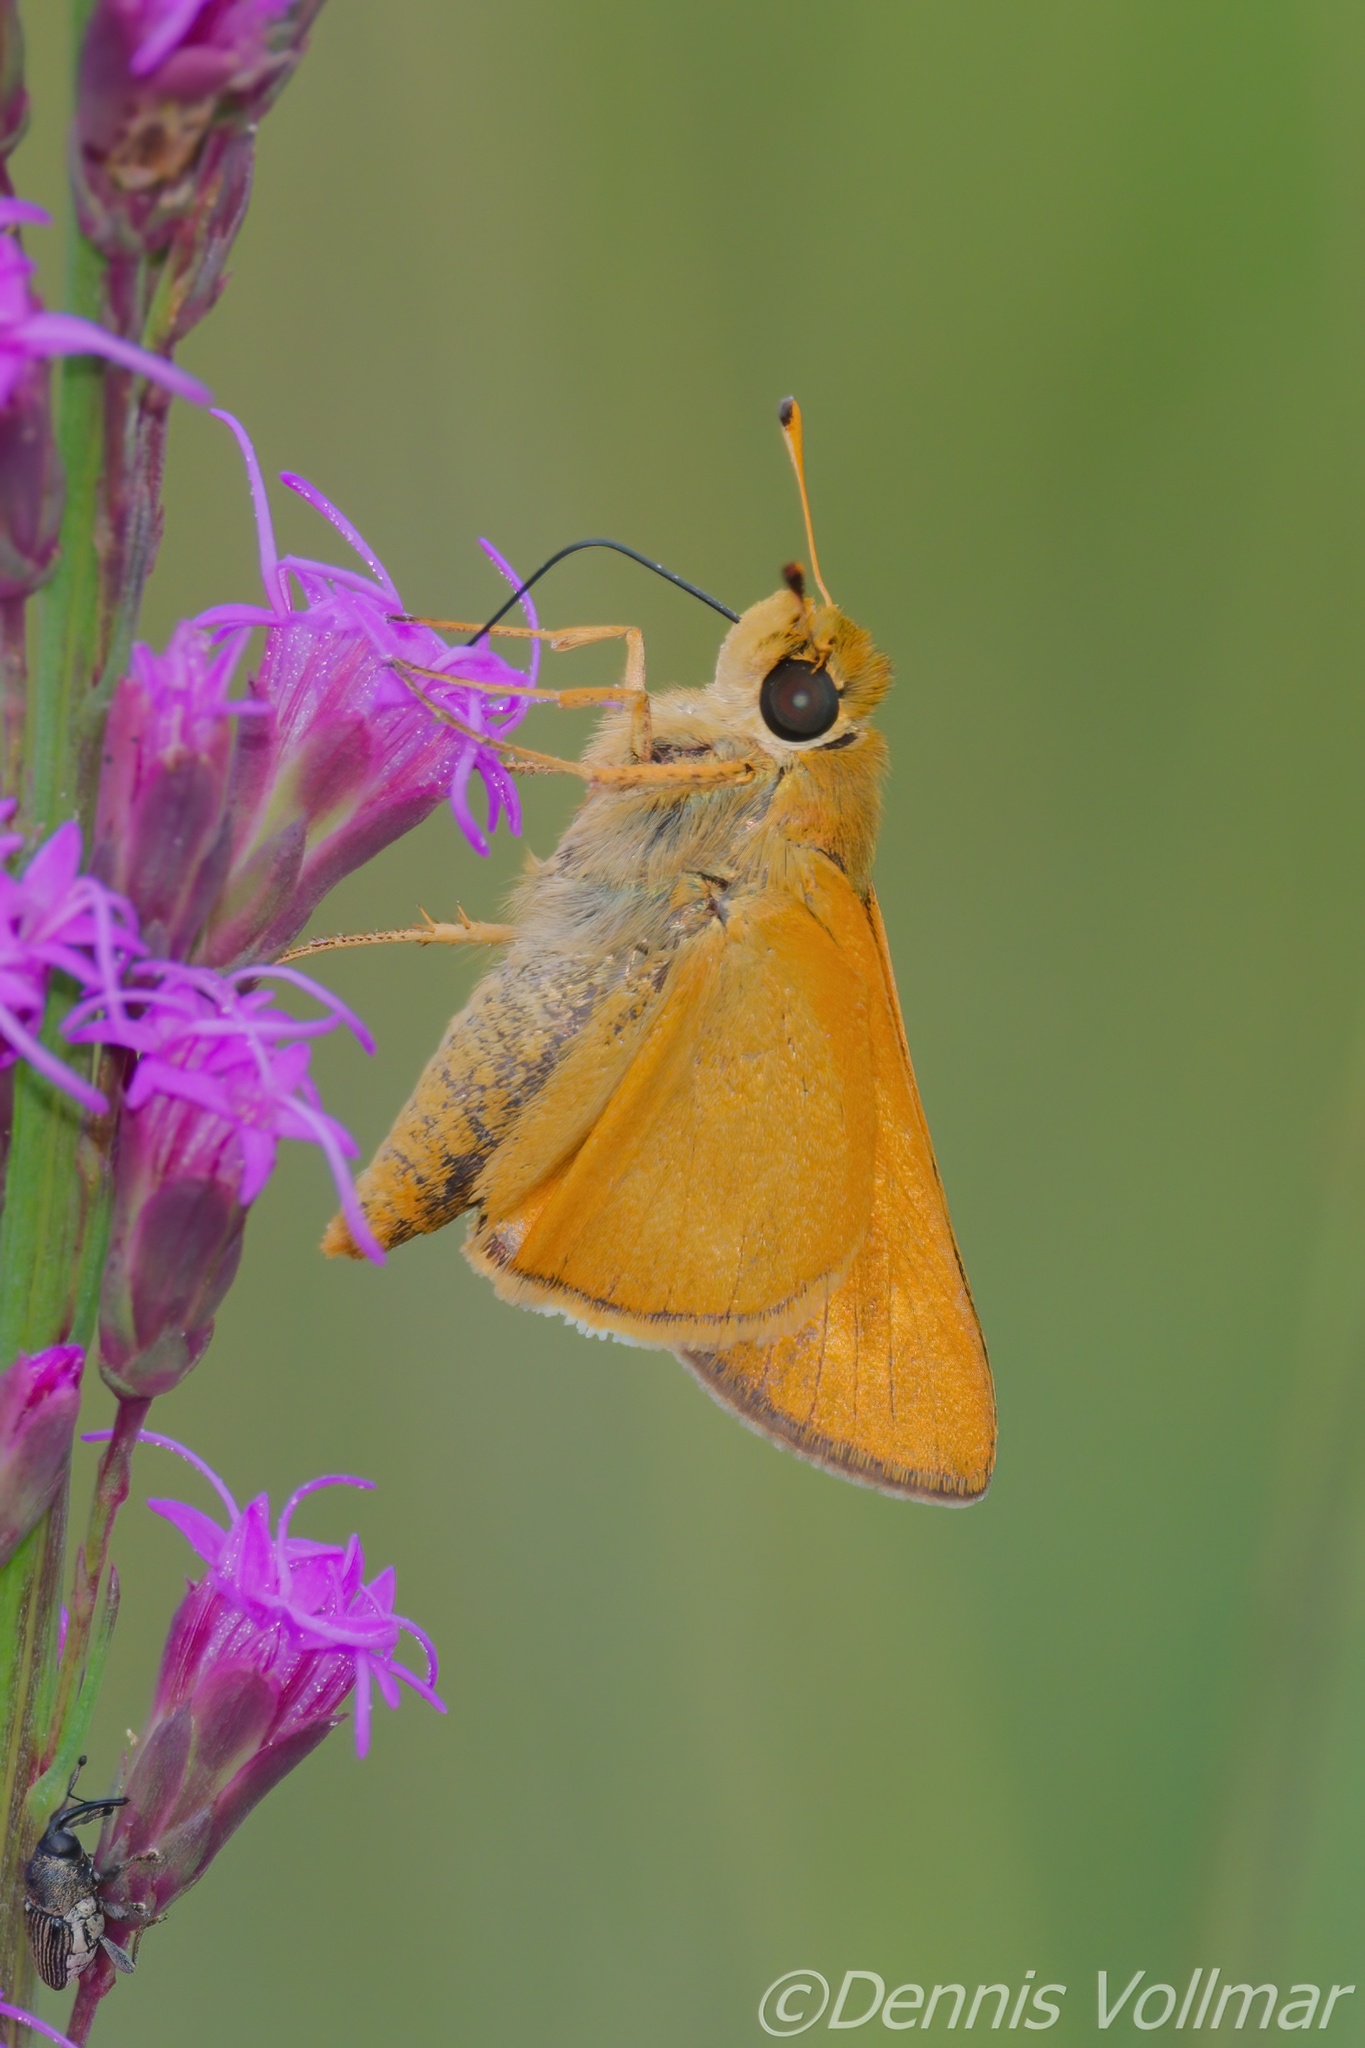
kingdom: Animalia
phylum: Arthropoda
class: Insecta
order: Lepidoptera
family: Hesperiidae
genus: Hesperia
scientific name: Hesperia meskei
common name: Meske's skipper
